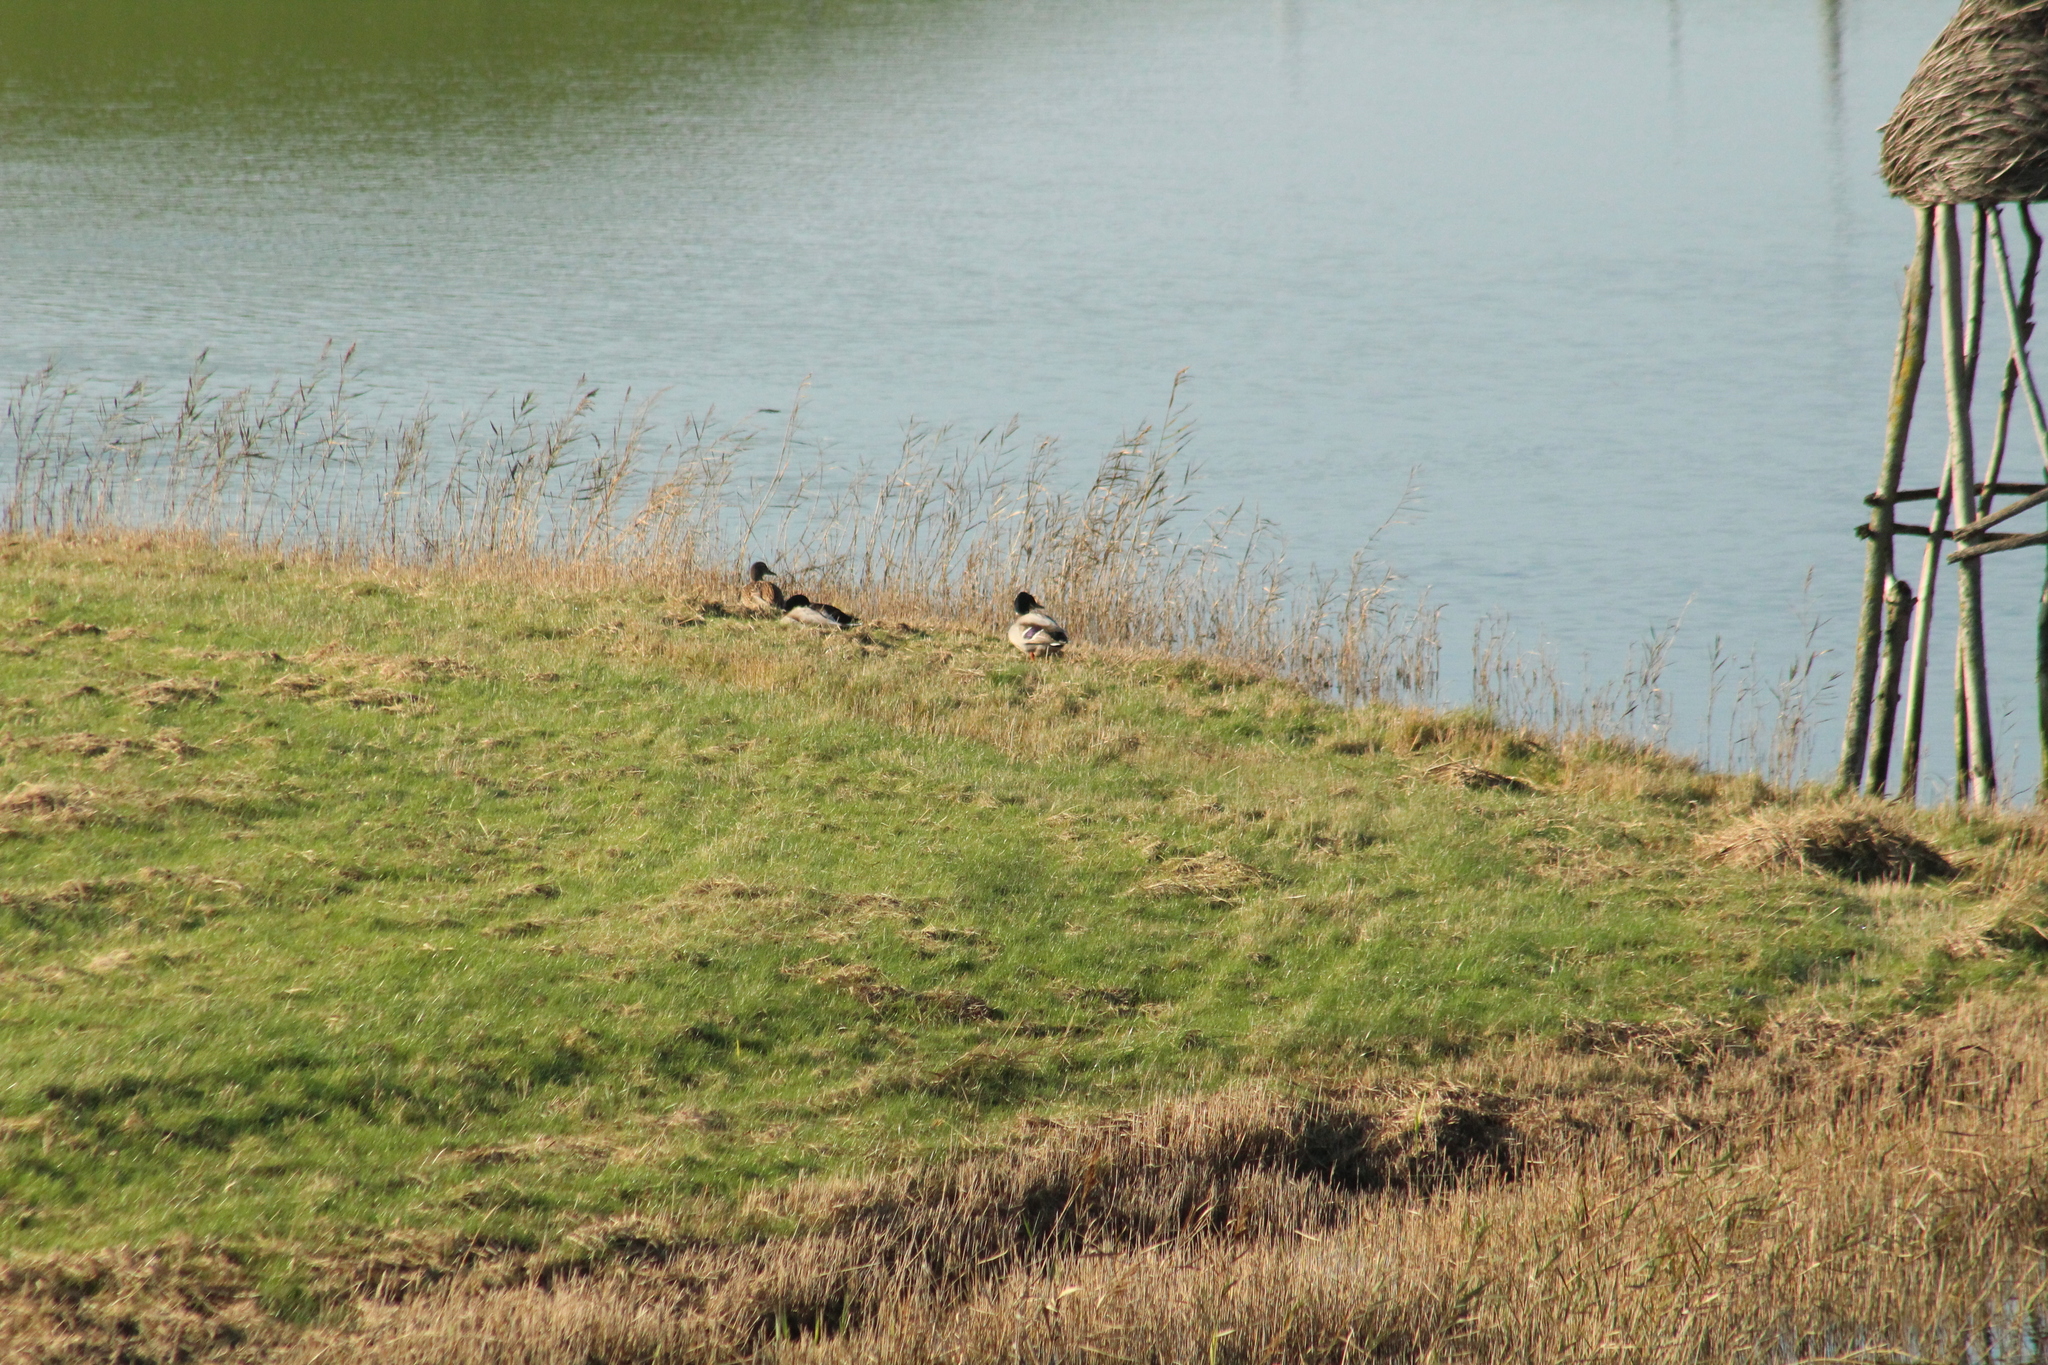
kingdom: Animalia
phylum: Chordata
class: Aves
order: Anseriformes
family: Anatidae
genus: Anas
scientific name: Anas platyrhynchos
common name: Mallard
